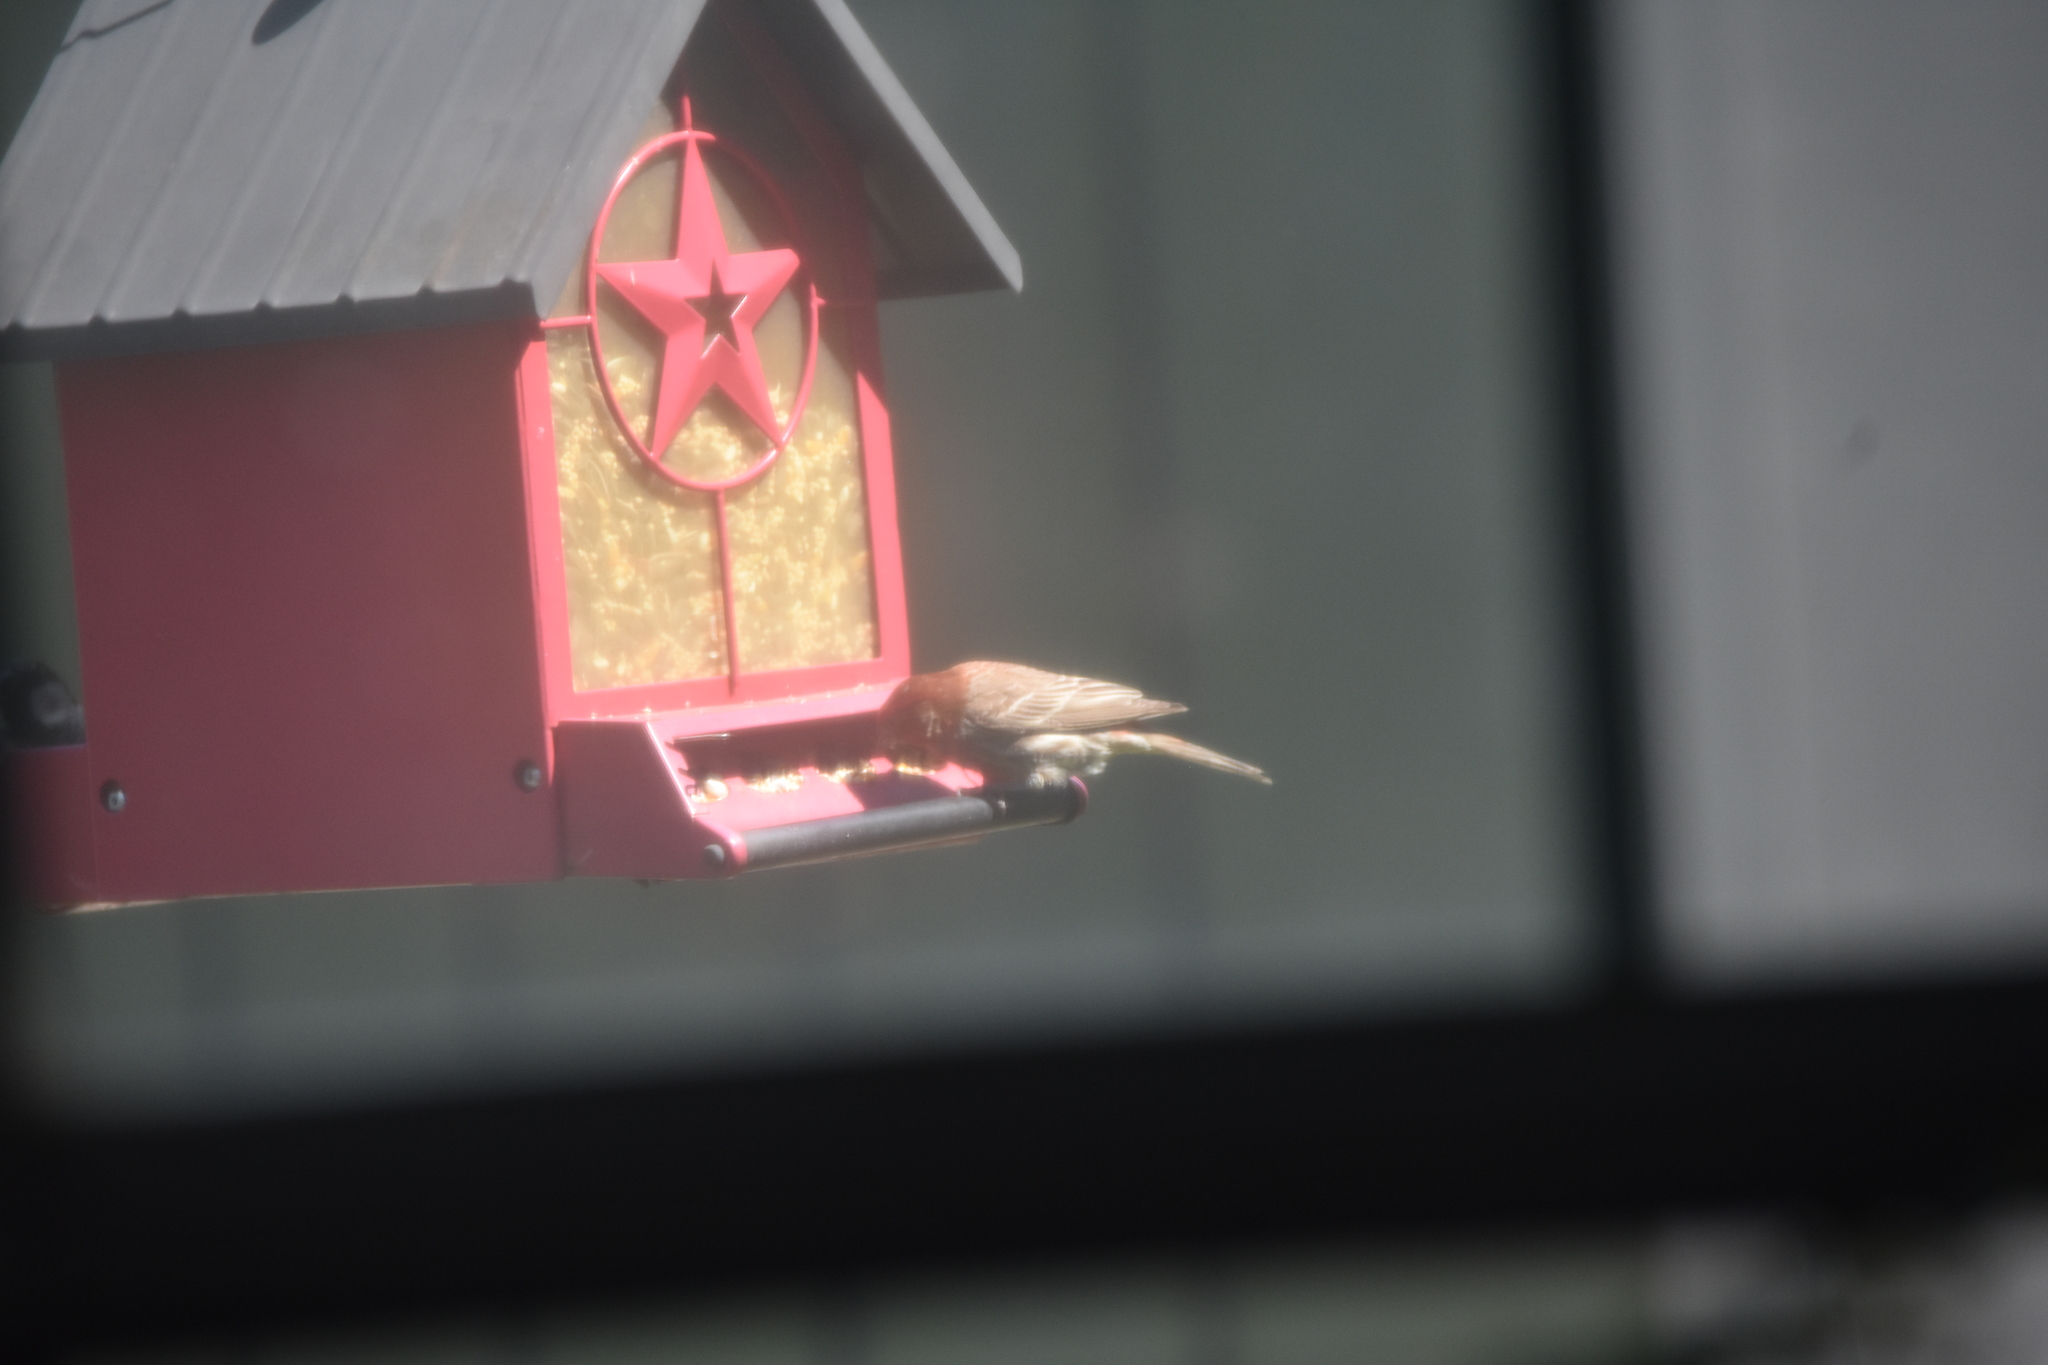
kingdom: Animalia
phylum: Chordata
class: Aves
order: Passeriformes
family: Fringillidae
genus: Haemorhous
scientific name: Haemorhous mexicanus
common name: House finch
